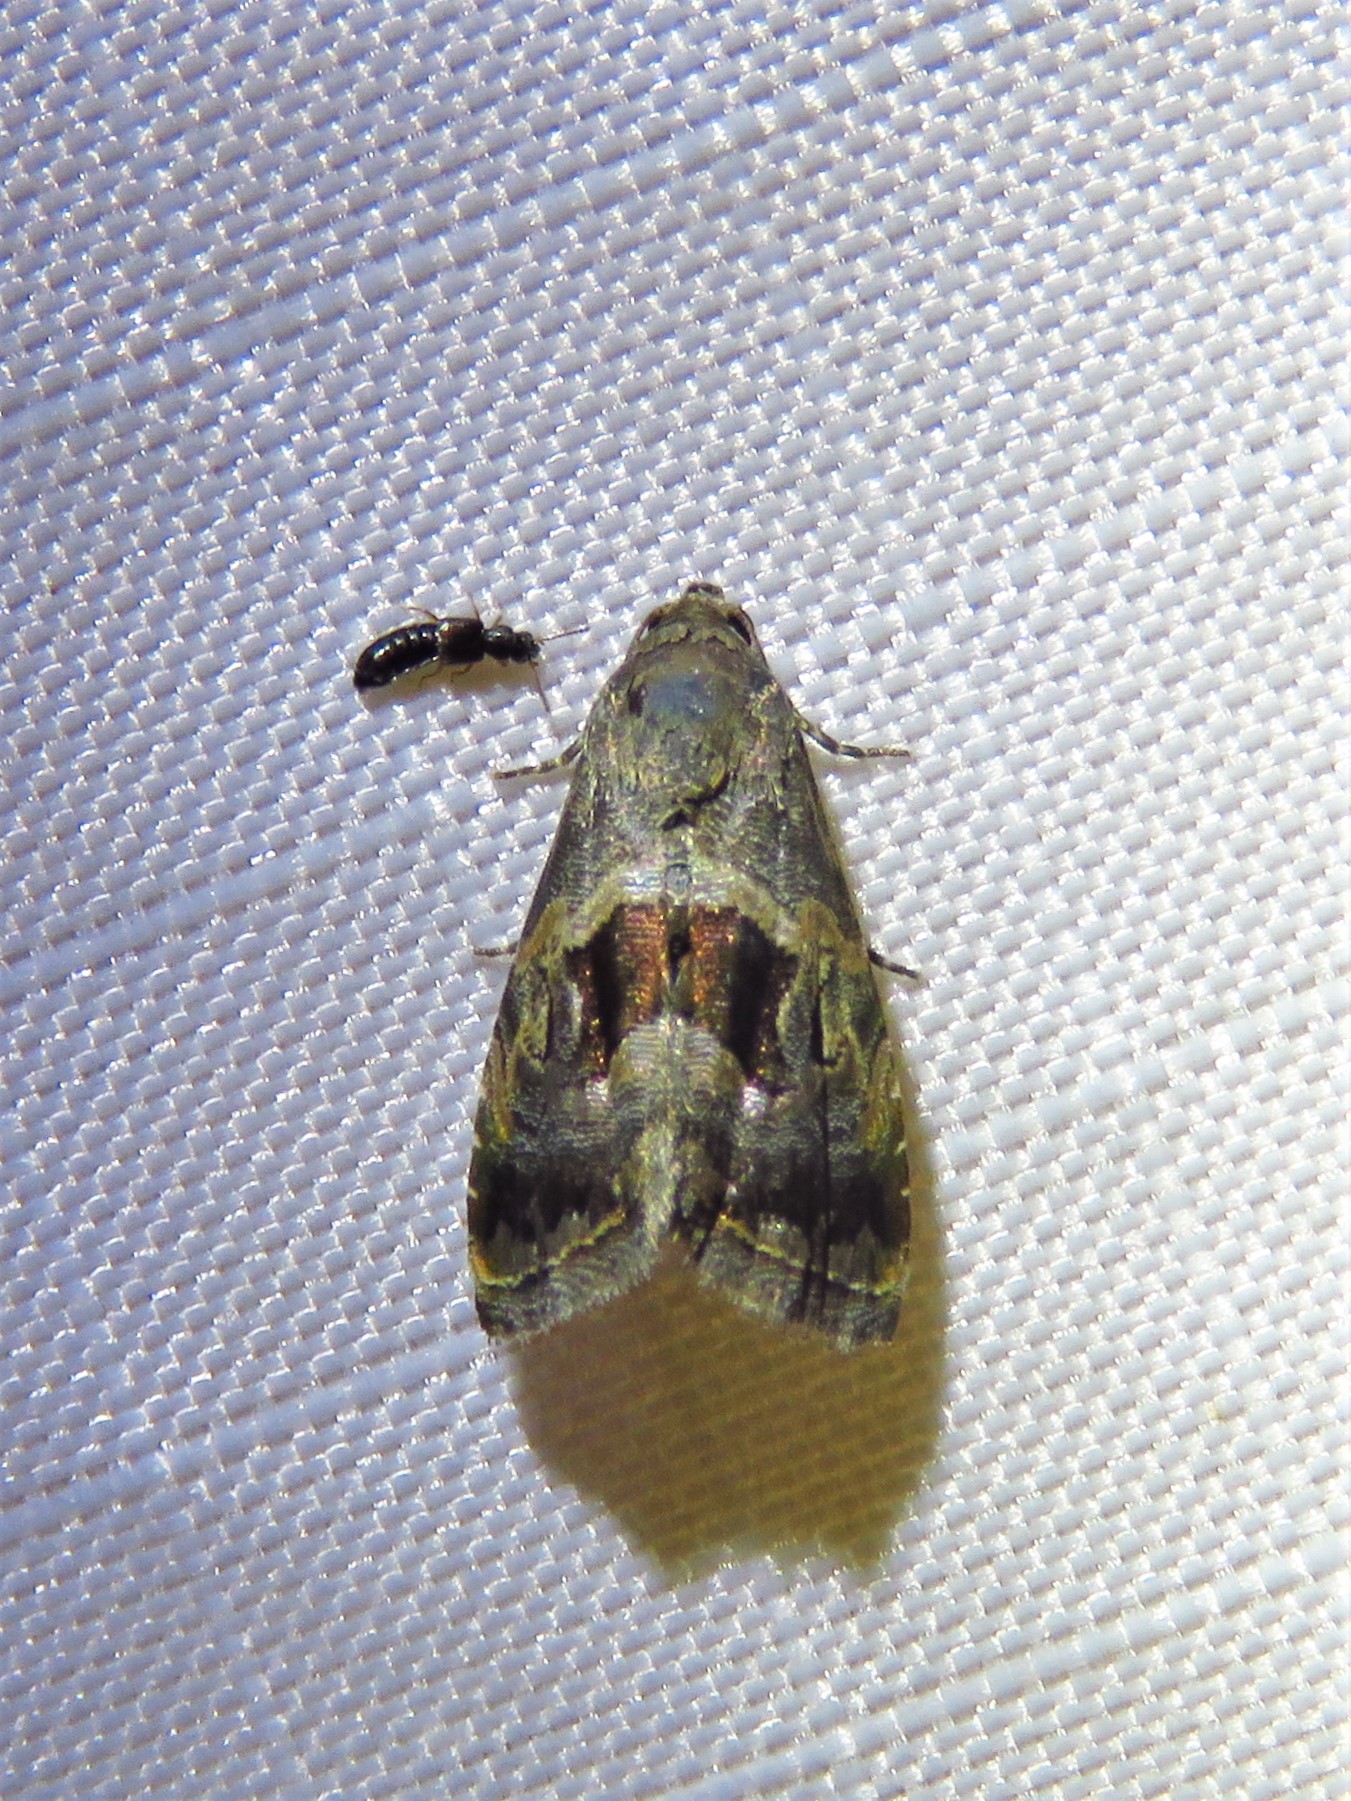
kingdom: Animalia
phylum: Arthropoda
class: Insecta
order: Lepidoptera
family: Noctuidae
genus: Tripudia
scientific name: Tripudia quadrifera
